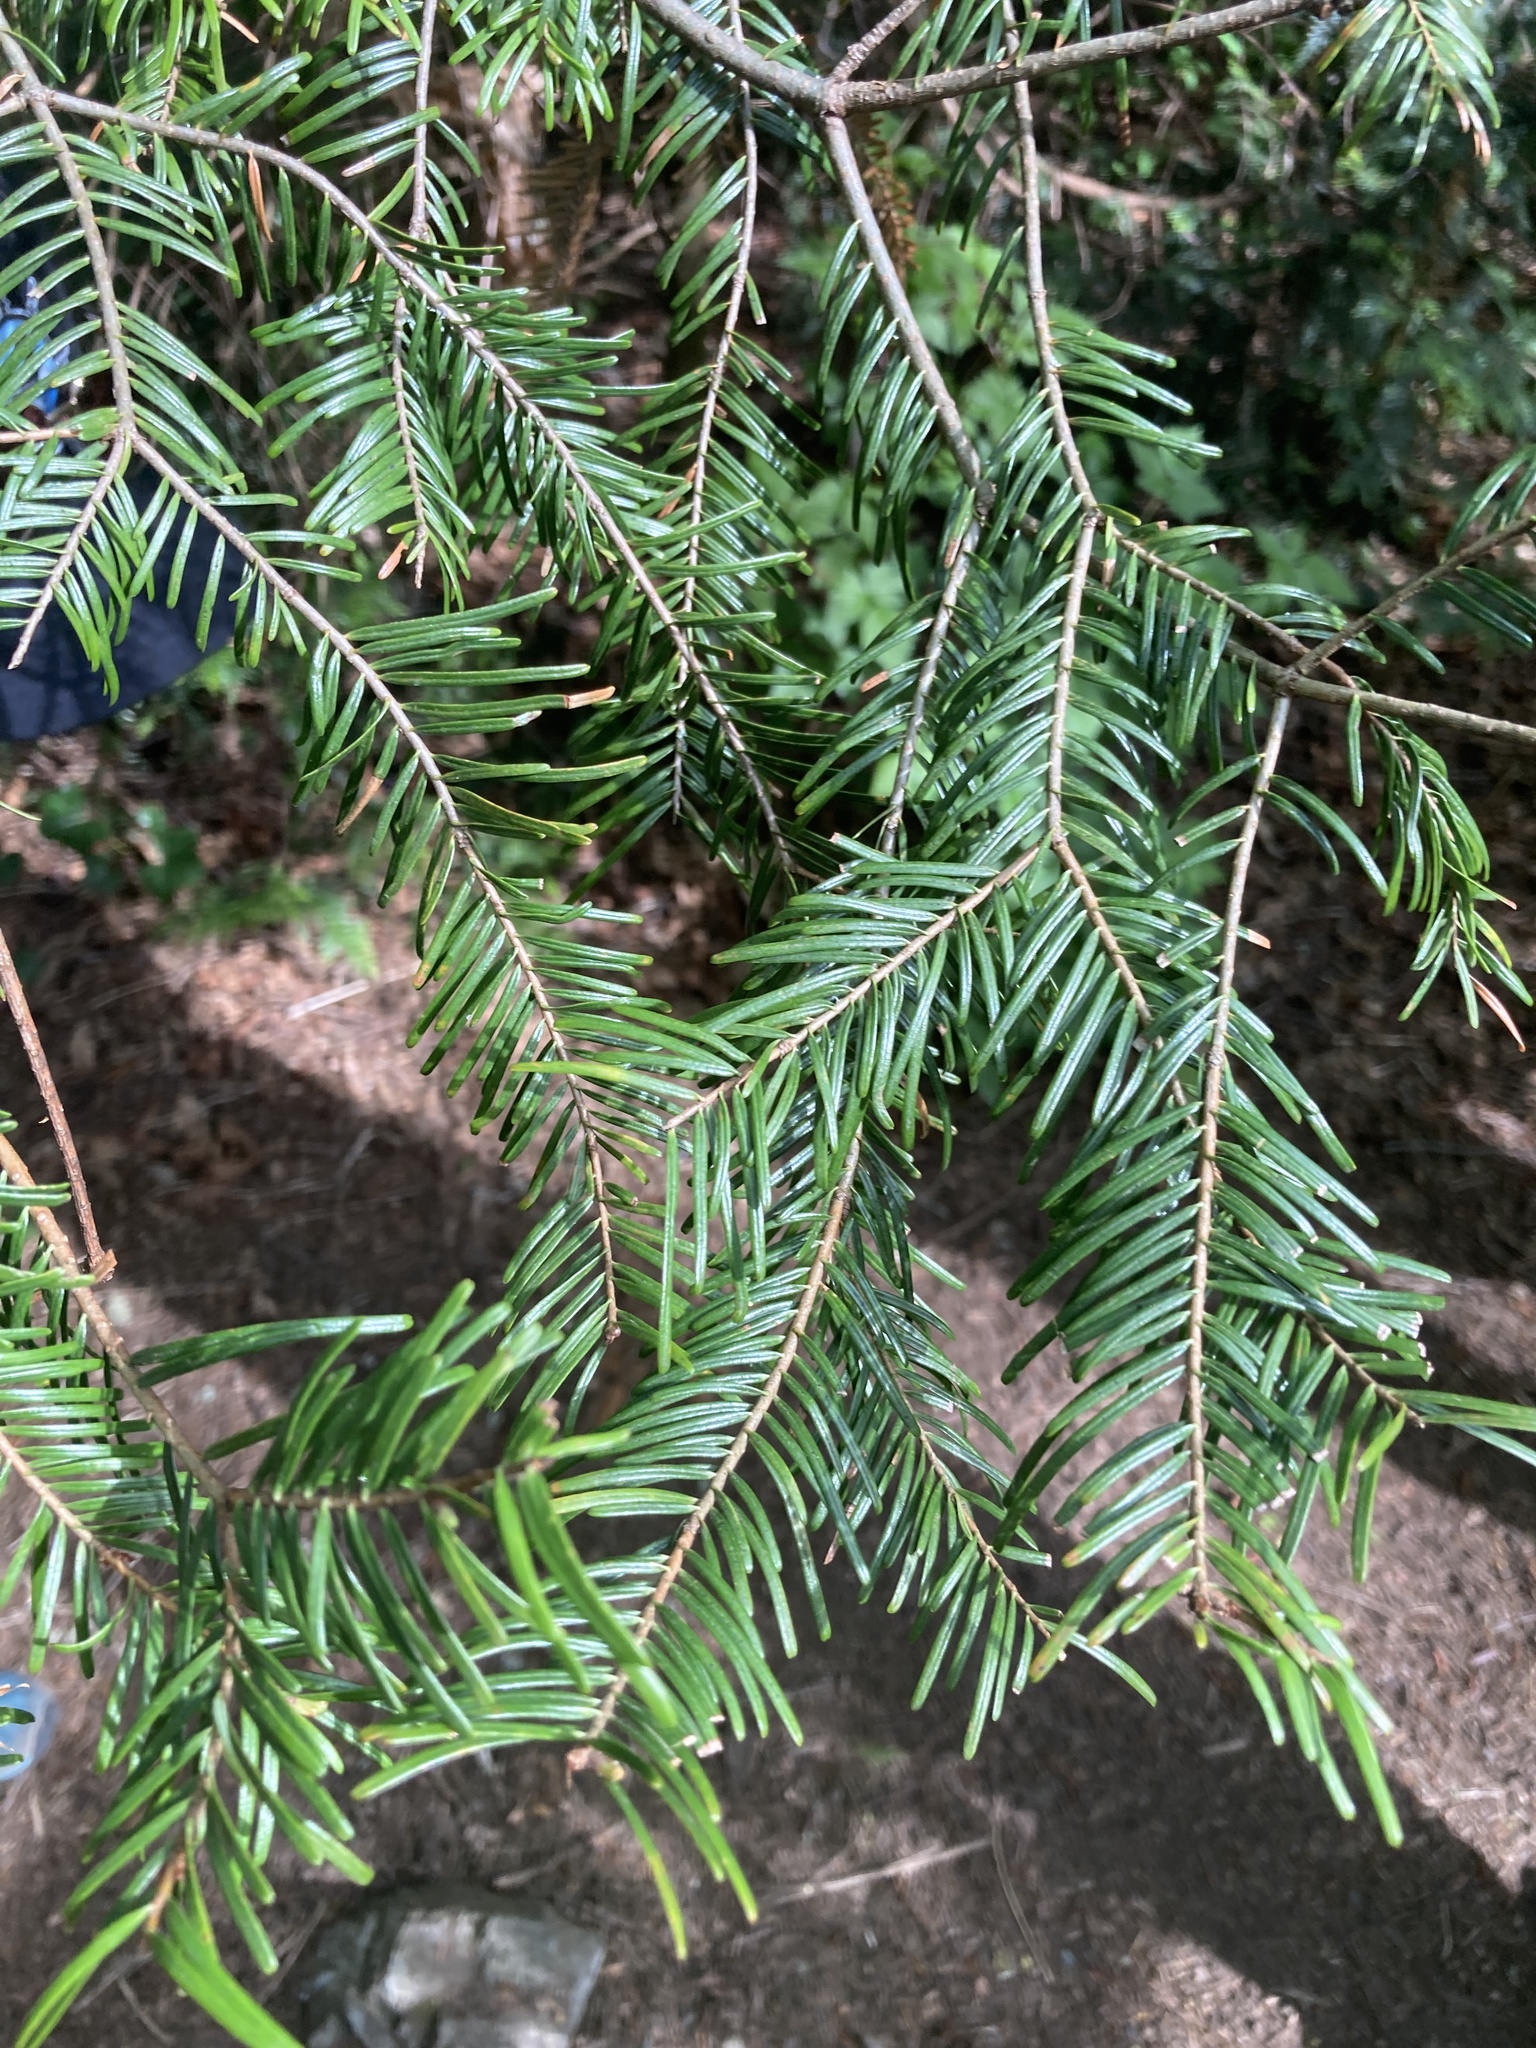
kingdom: Plantae
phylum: Tracheophyta
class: Pinopsida
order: Pinales
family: Pinaceae
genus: Abies
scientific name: Abies grandis
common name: Giant fir
